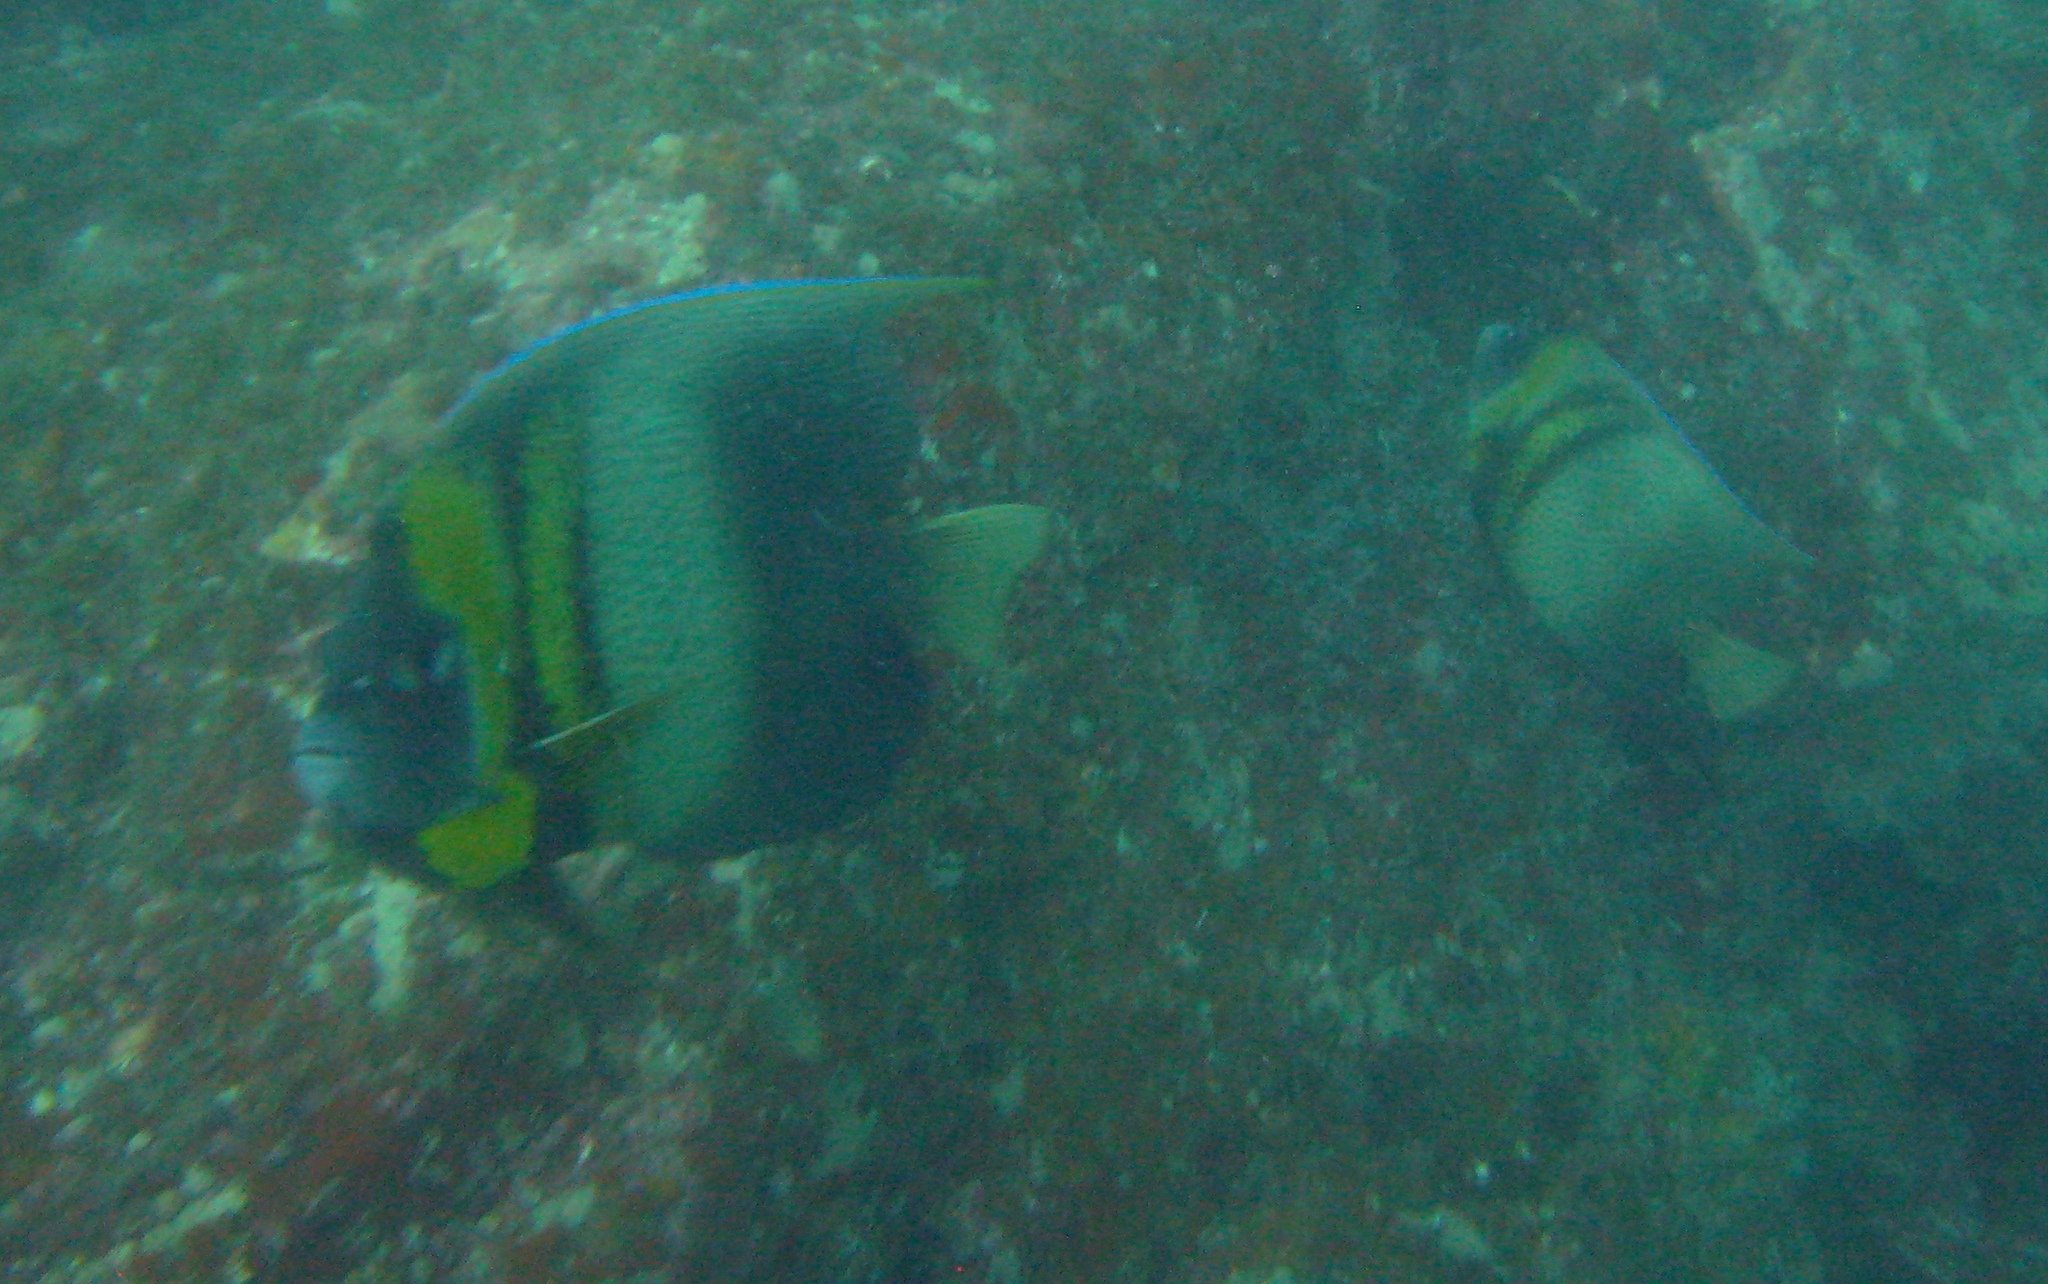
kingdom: Animalia
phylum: Chordata
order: Perciformes
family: Pomacanthidae
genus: Pomacanthus
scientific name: Pomacanthus zonipectus
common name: Cortez angelfish
